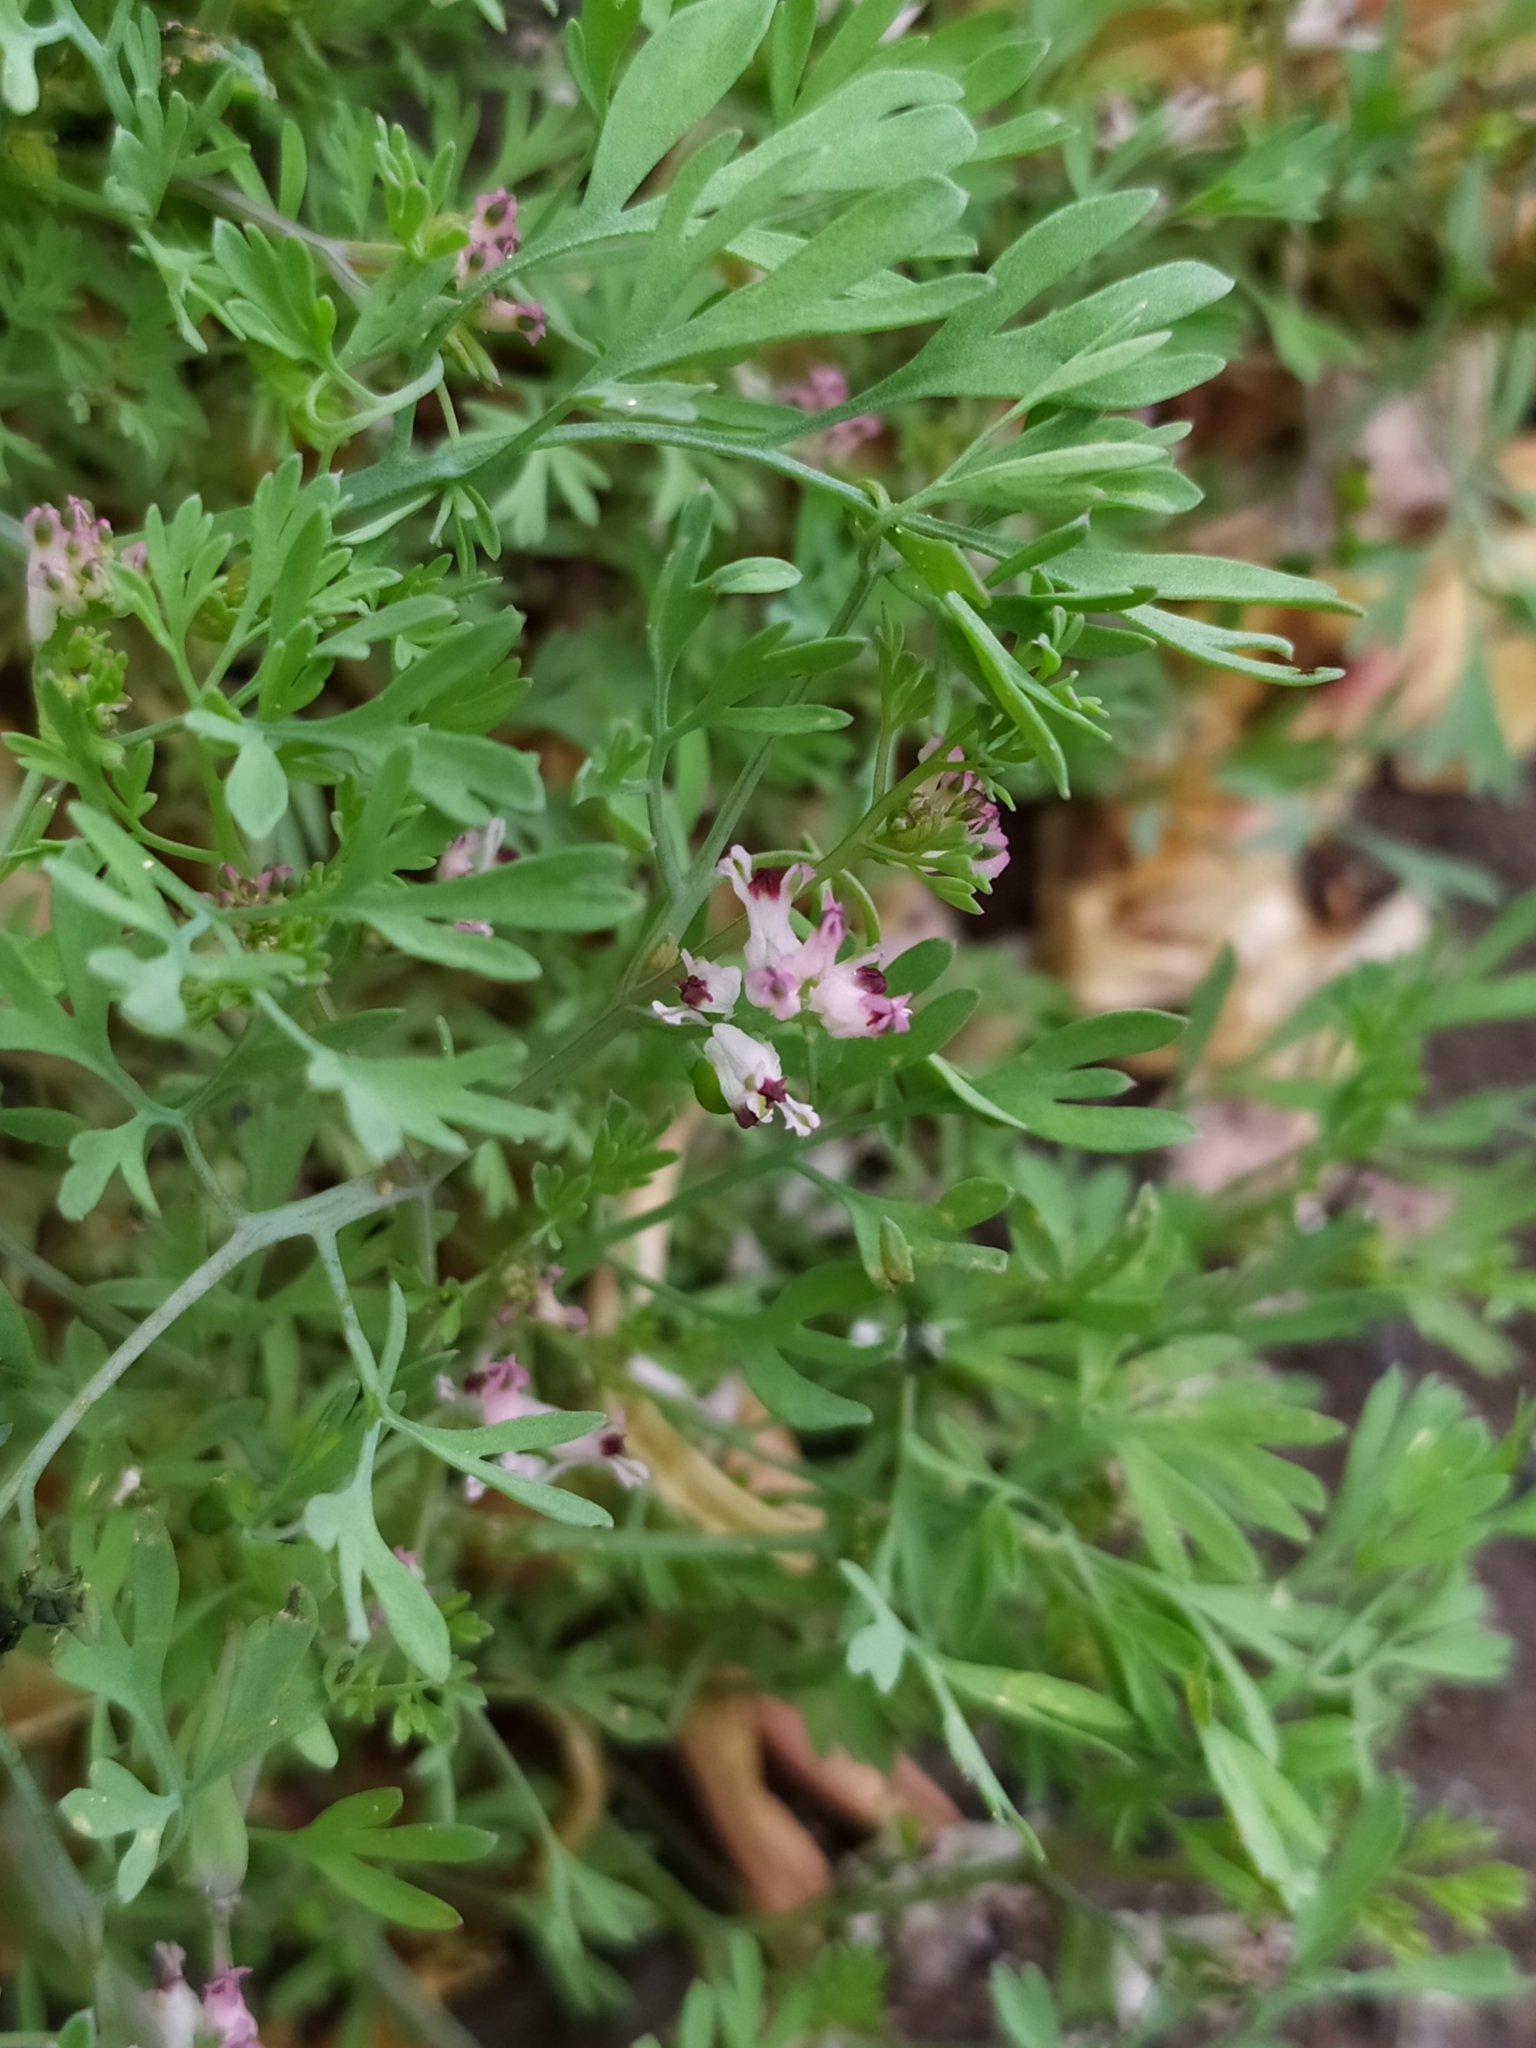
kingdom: Plantae
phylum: Tracheophyta
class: Magnoliopsida
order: Ranunculales
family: Papaveraceae
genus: Fumaria
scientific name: Fumaria vaillantii
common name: Few-flowered fumitory
